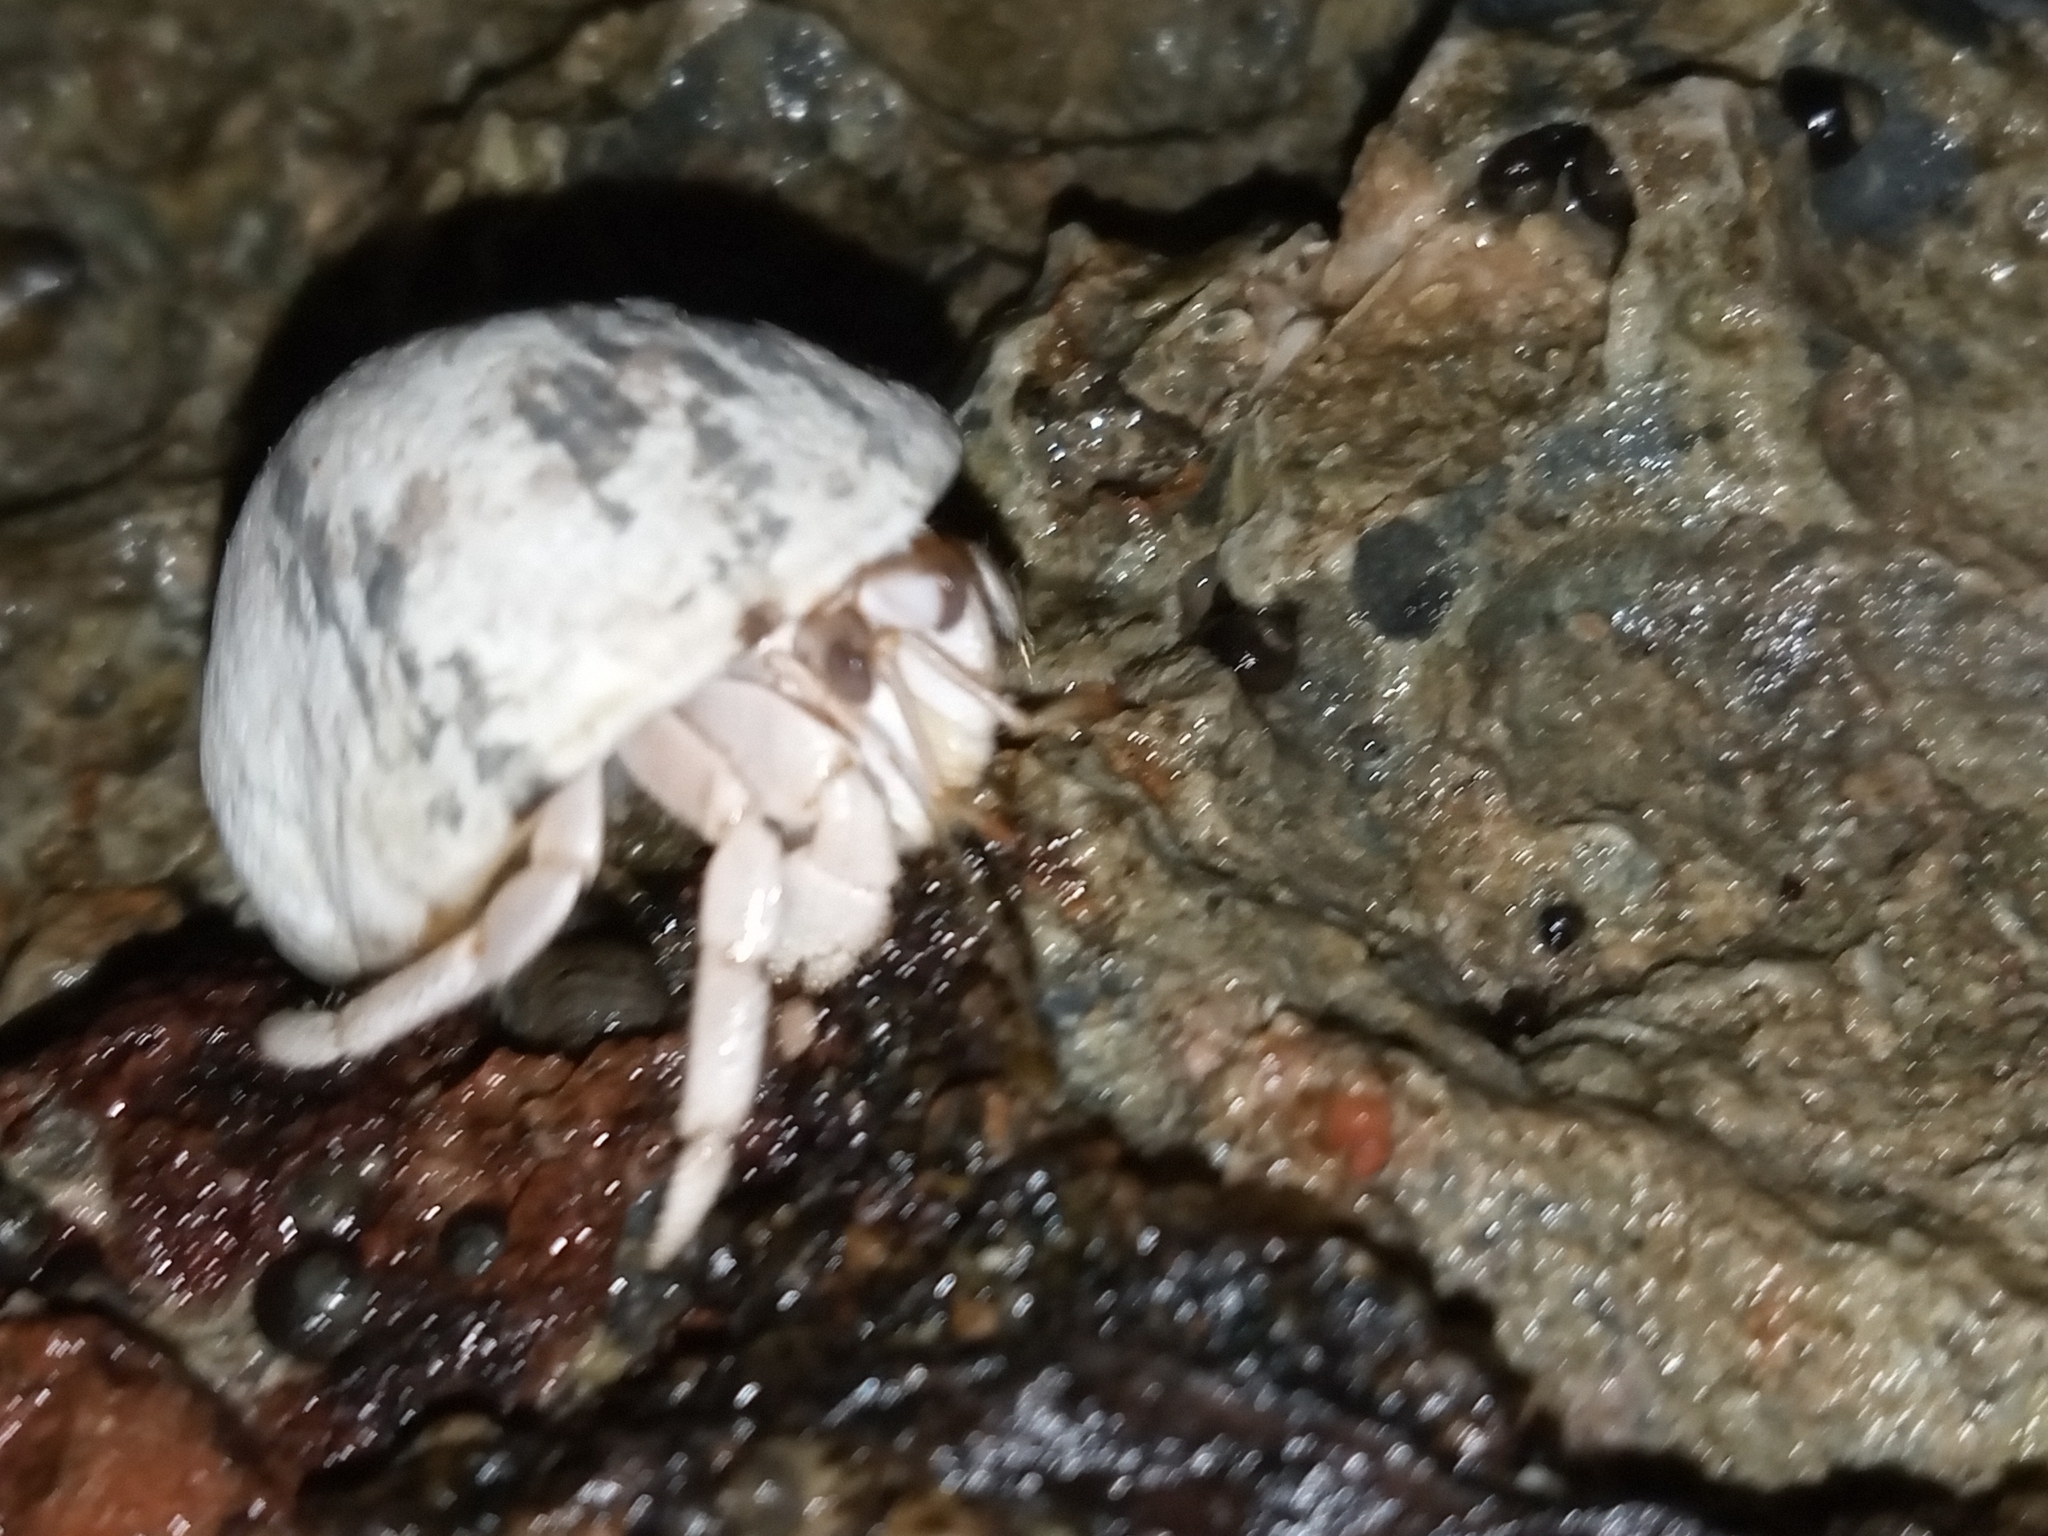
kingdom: Animalia
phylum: Arthropoda
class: Malacostraca
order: Decapoda
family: Coenobitidae
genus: Coenobita
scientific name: Coenobita scaevola
